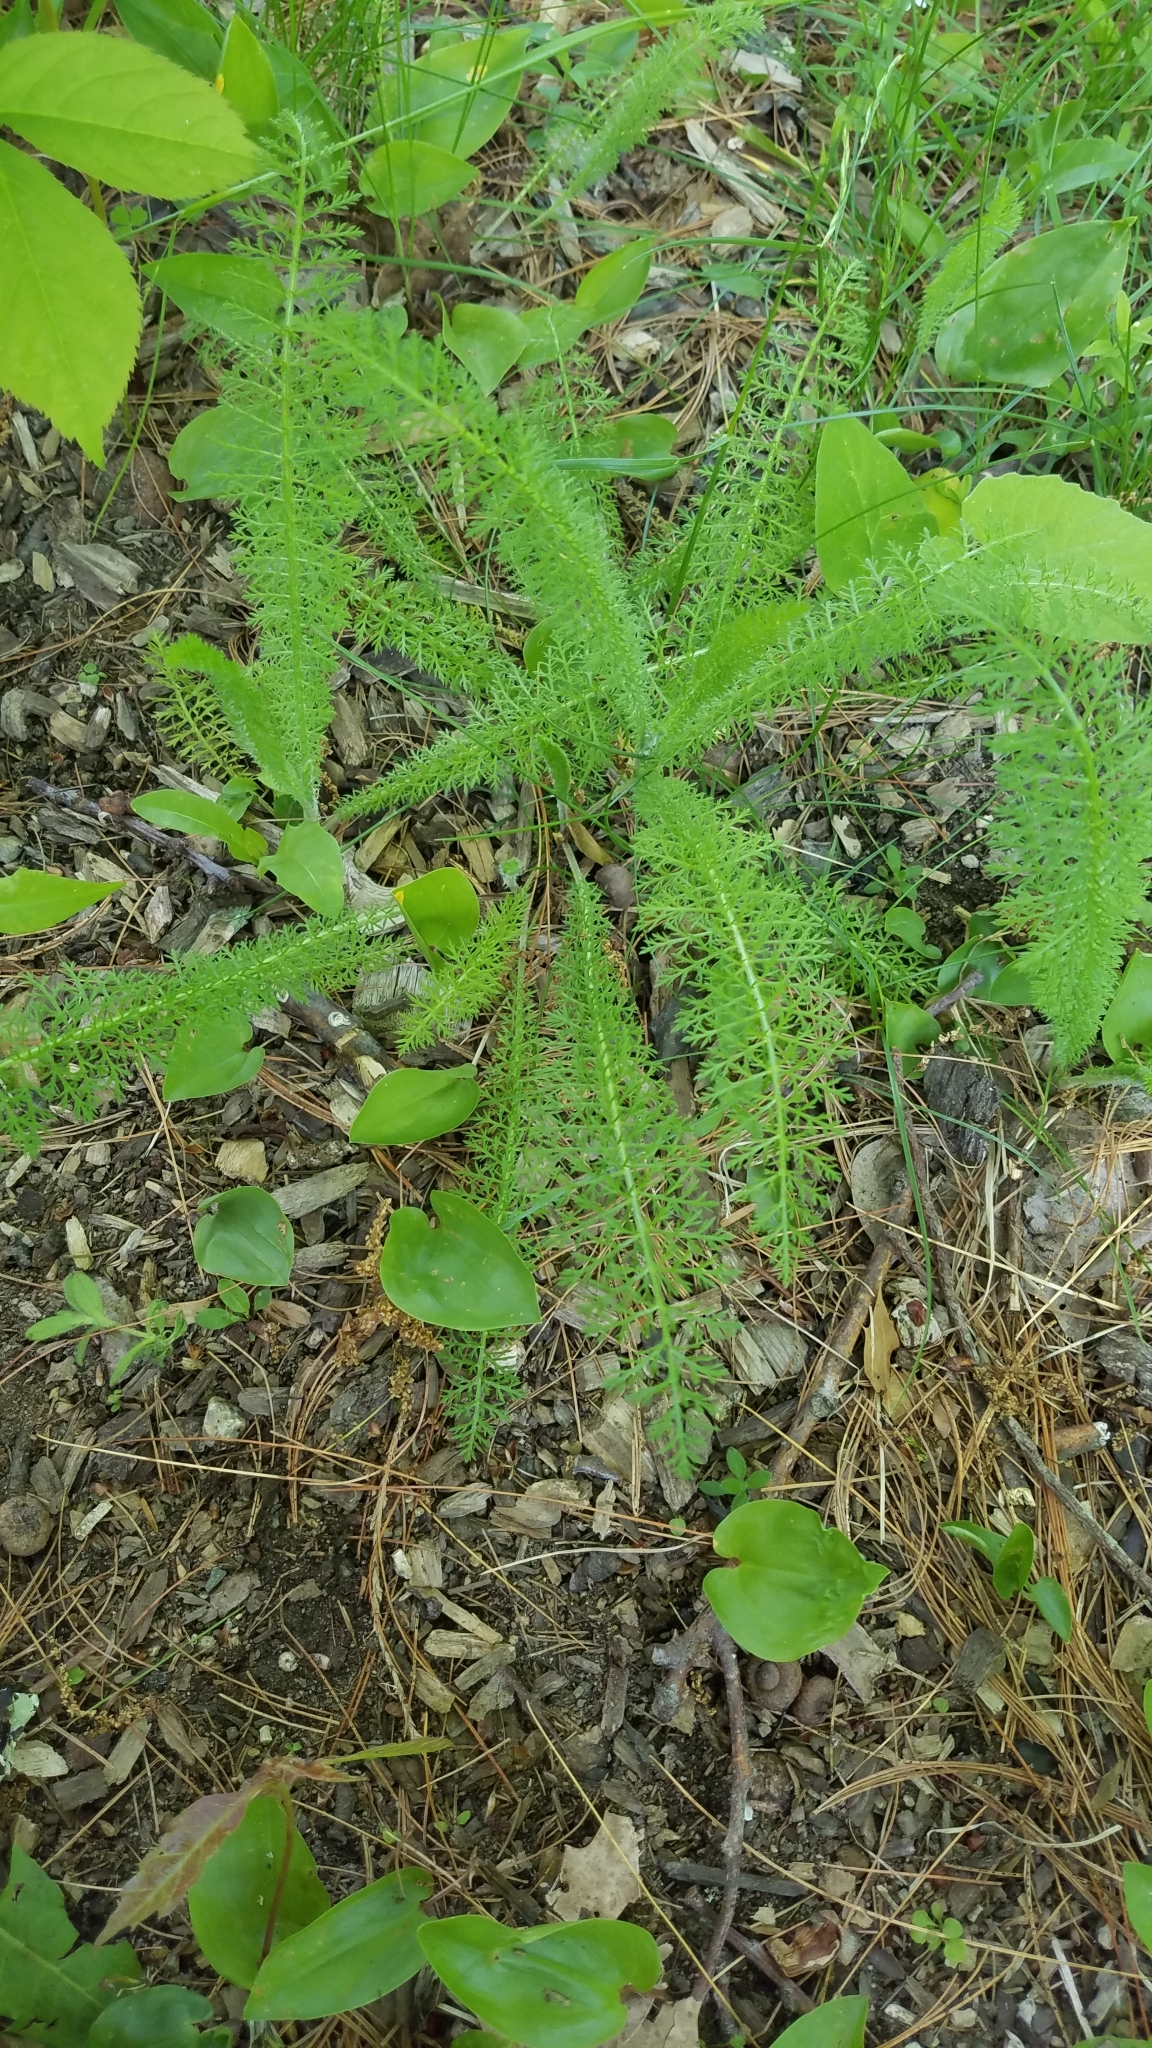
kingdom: Plantae
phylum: Tracheophyta
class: Magnoliopsida
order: Asterales
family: Asteraceae
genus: Achillea
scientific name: Achillea millefolium
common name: Yarrow
